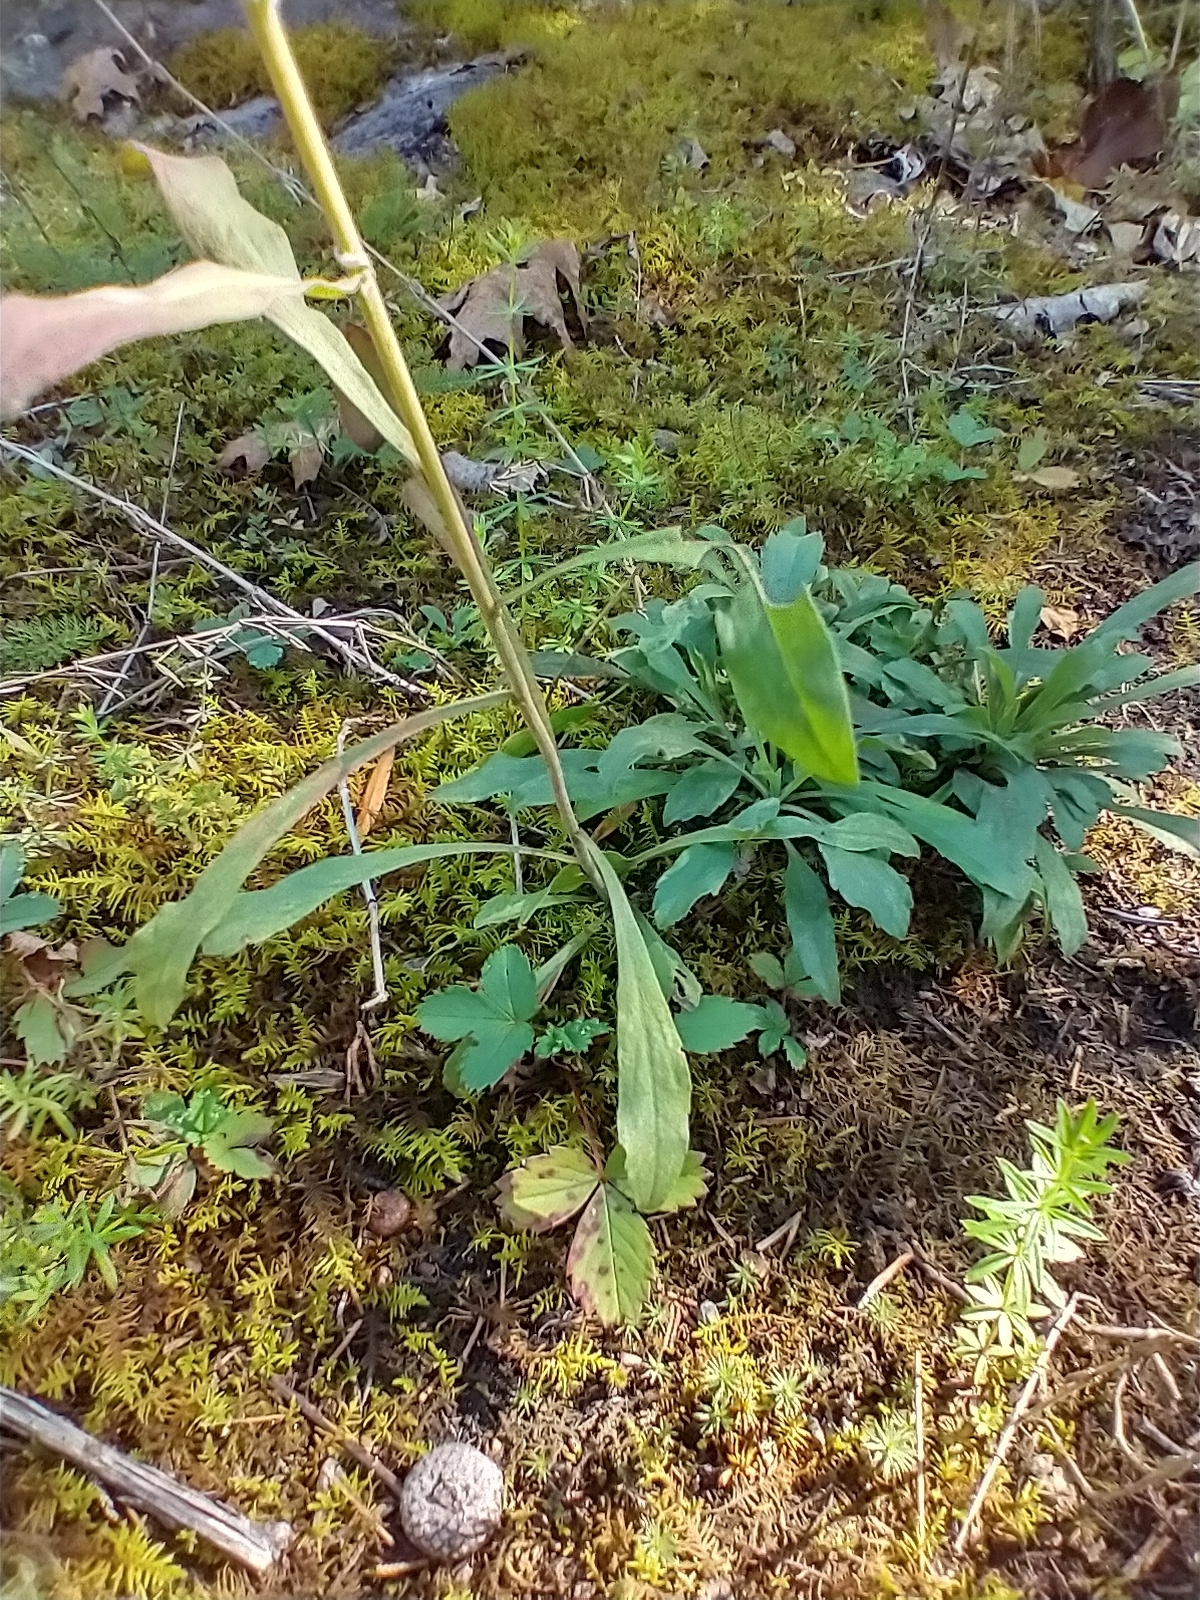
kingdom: Plantae
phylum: Tracheophyta
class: Magnoliopsida
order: Asterales
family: Asteraceae
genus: Solidago
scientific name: Solidago nemoralis
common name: Grey goldenrod
